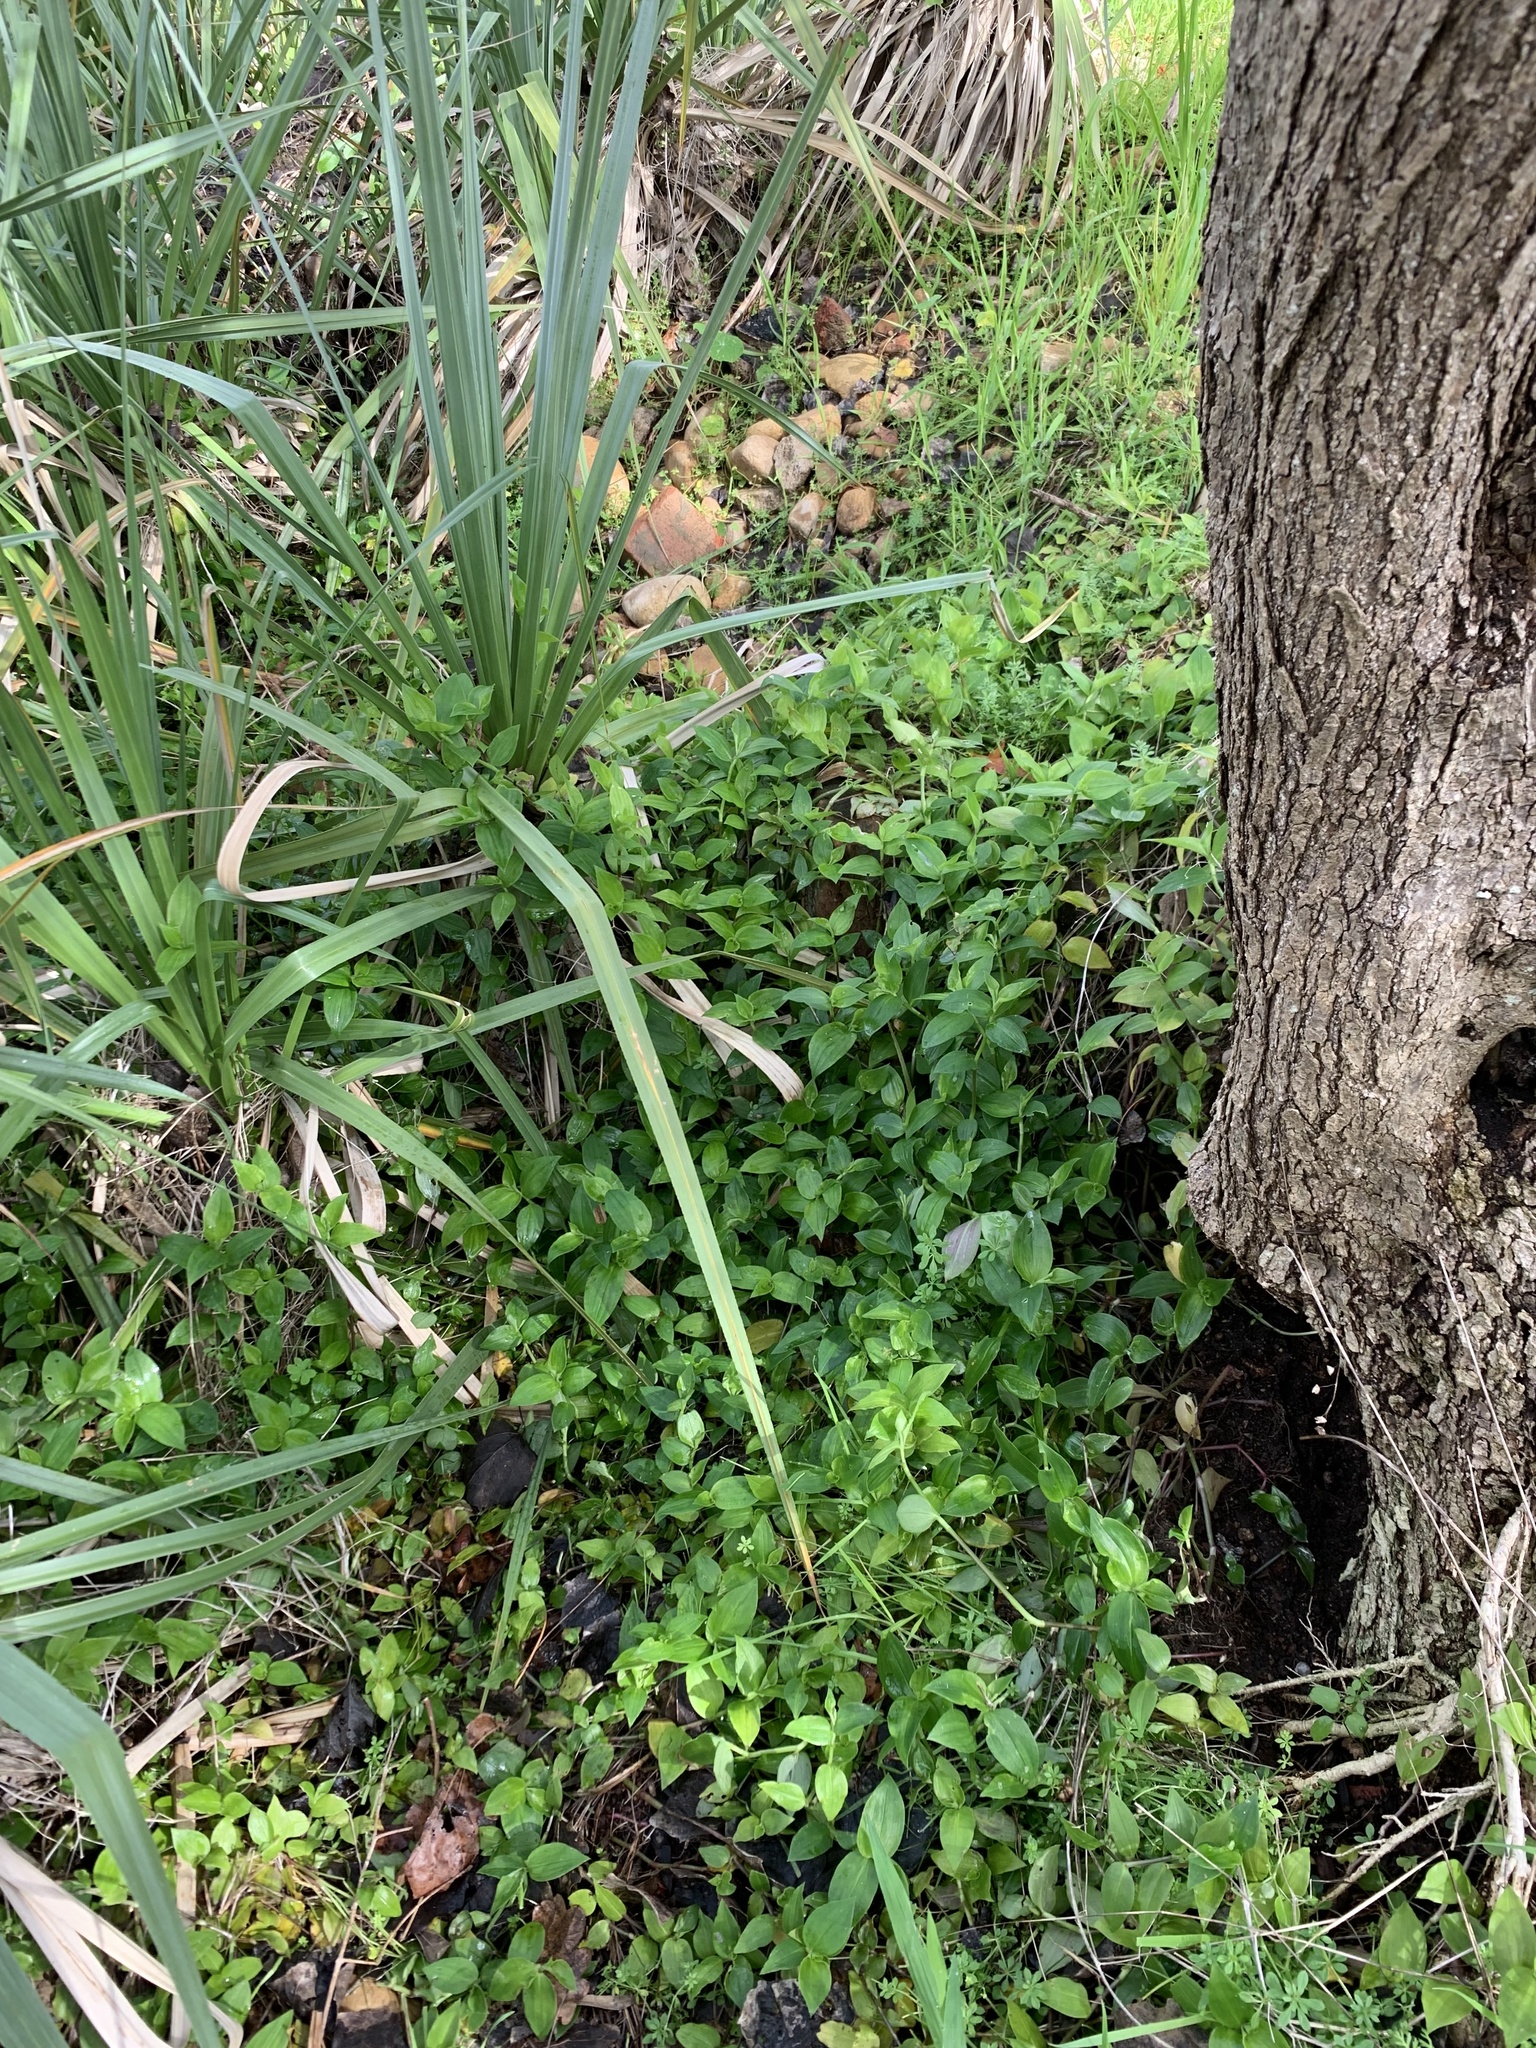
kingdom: Plantae
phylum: Tracheophyta
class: Liliopsida
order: Commelinales
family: Commelinaceae
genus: Tradescantia
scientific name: Tradescantia fluminensis
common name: Wandering-jew
